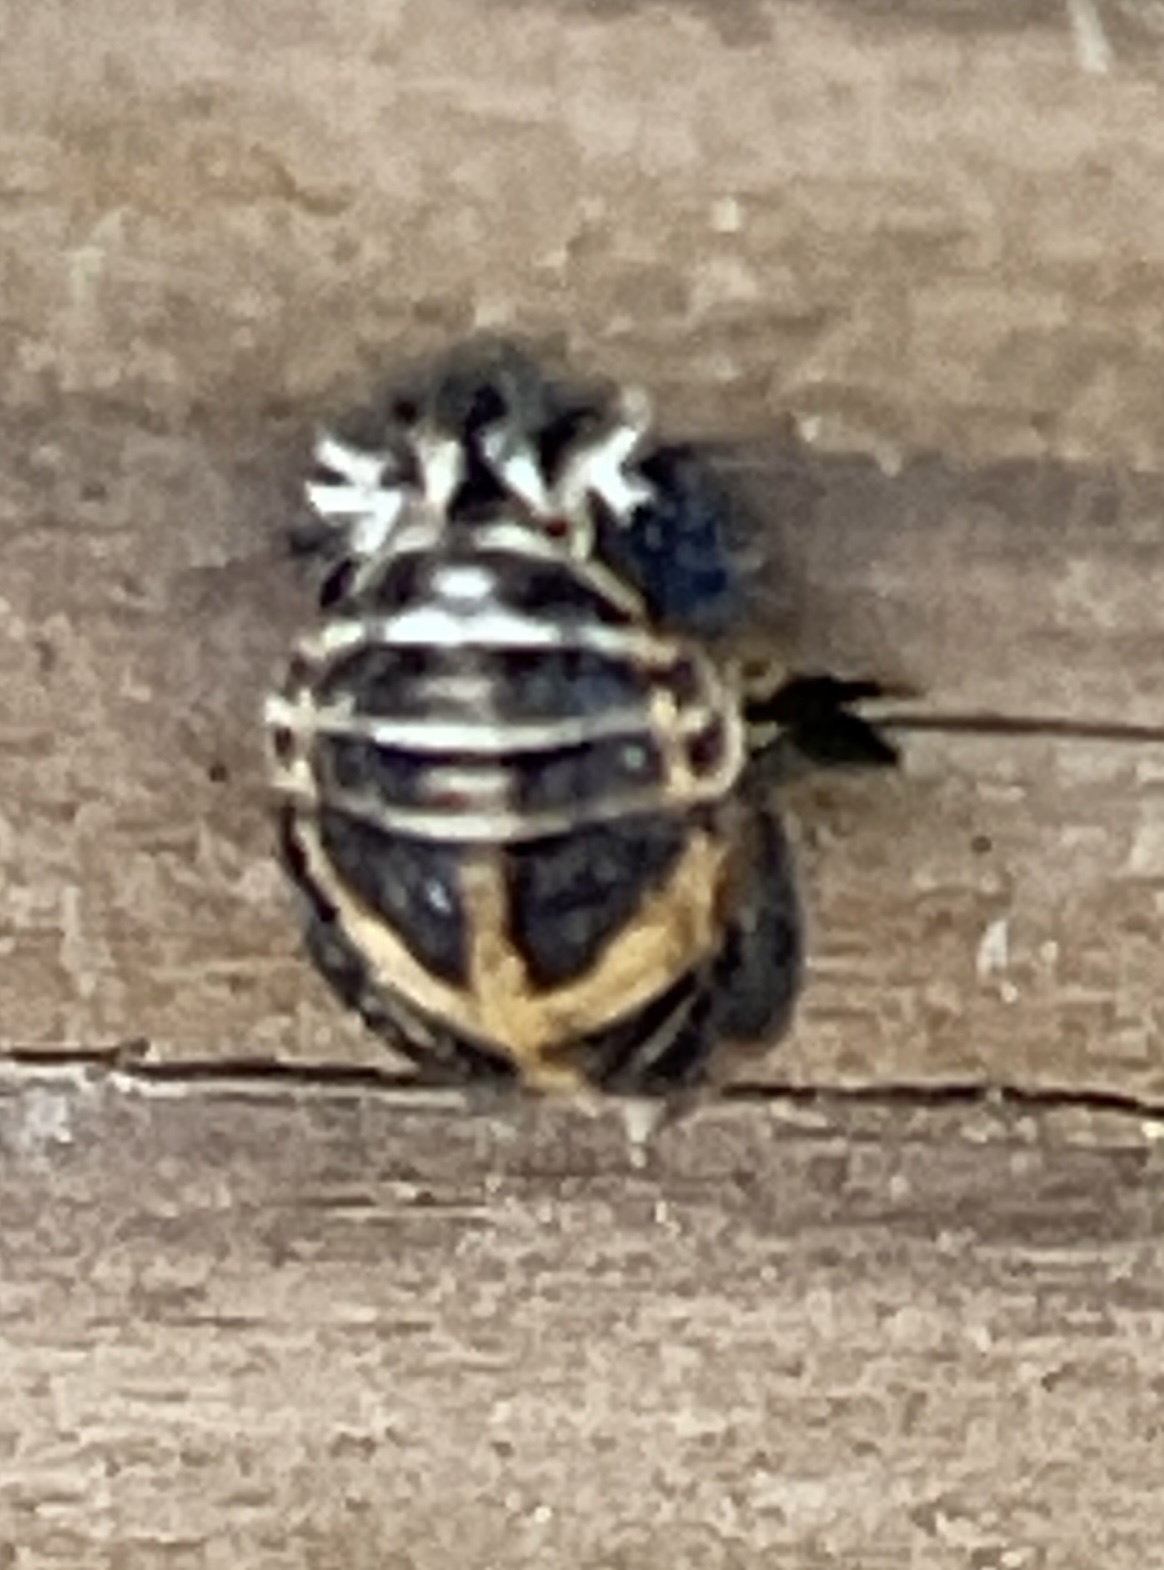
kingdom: Animalia
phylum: Arthropoda
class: Insecta
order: Coleoptera
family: Coccinellidae
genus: Harmonia
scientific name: Harmonia axyridis
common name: Harlequin ladybird
